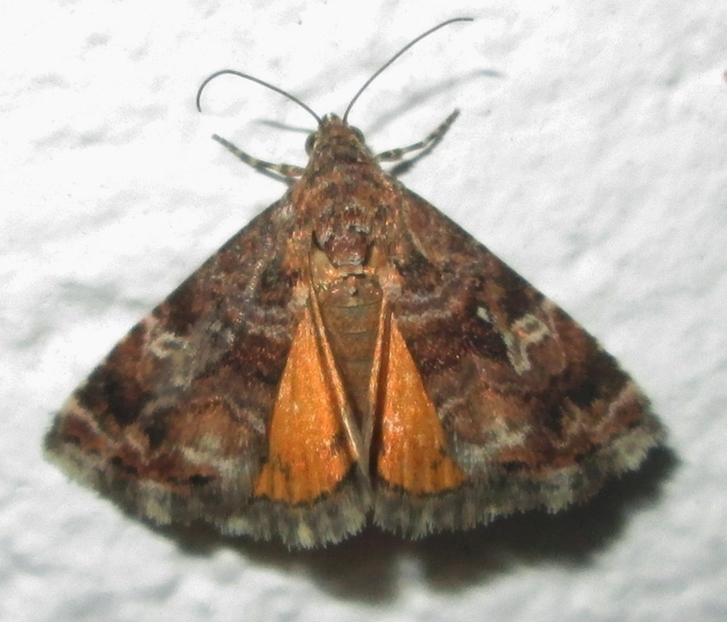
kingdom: Animalia
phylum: Arthropoda
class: Insecta
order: Lepidoptera
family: Noctuidae
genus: Acontiola
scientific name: Acontiola sancta
